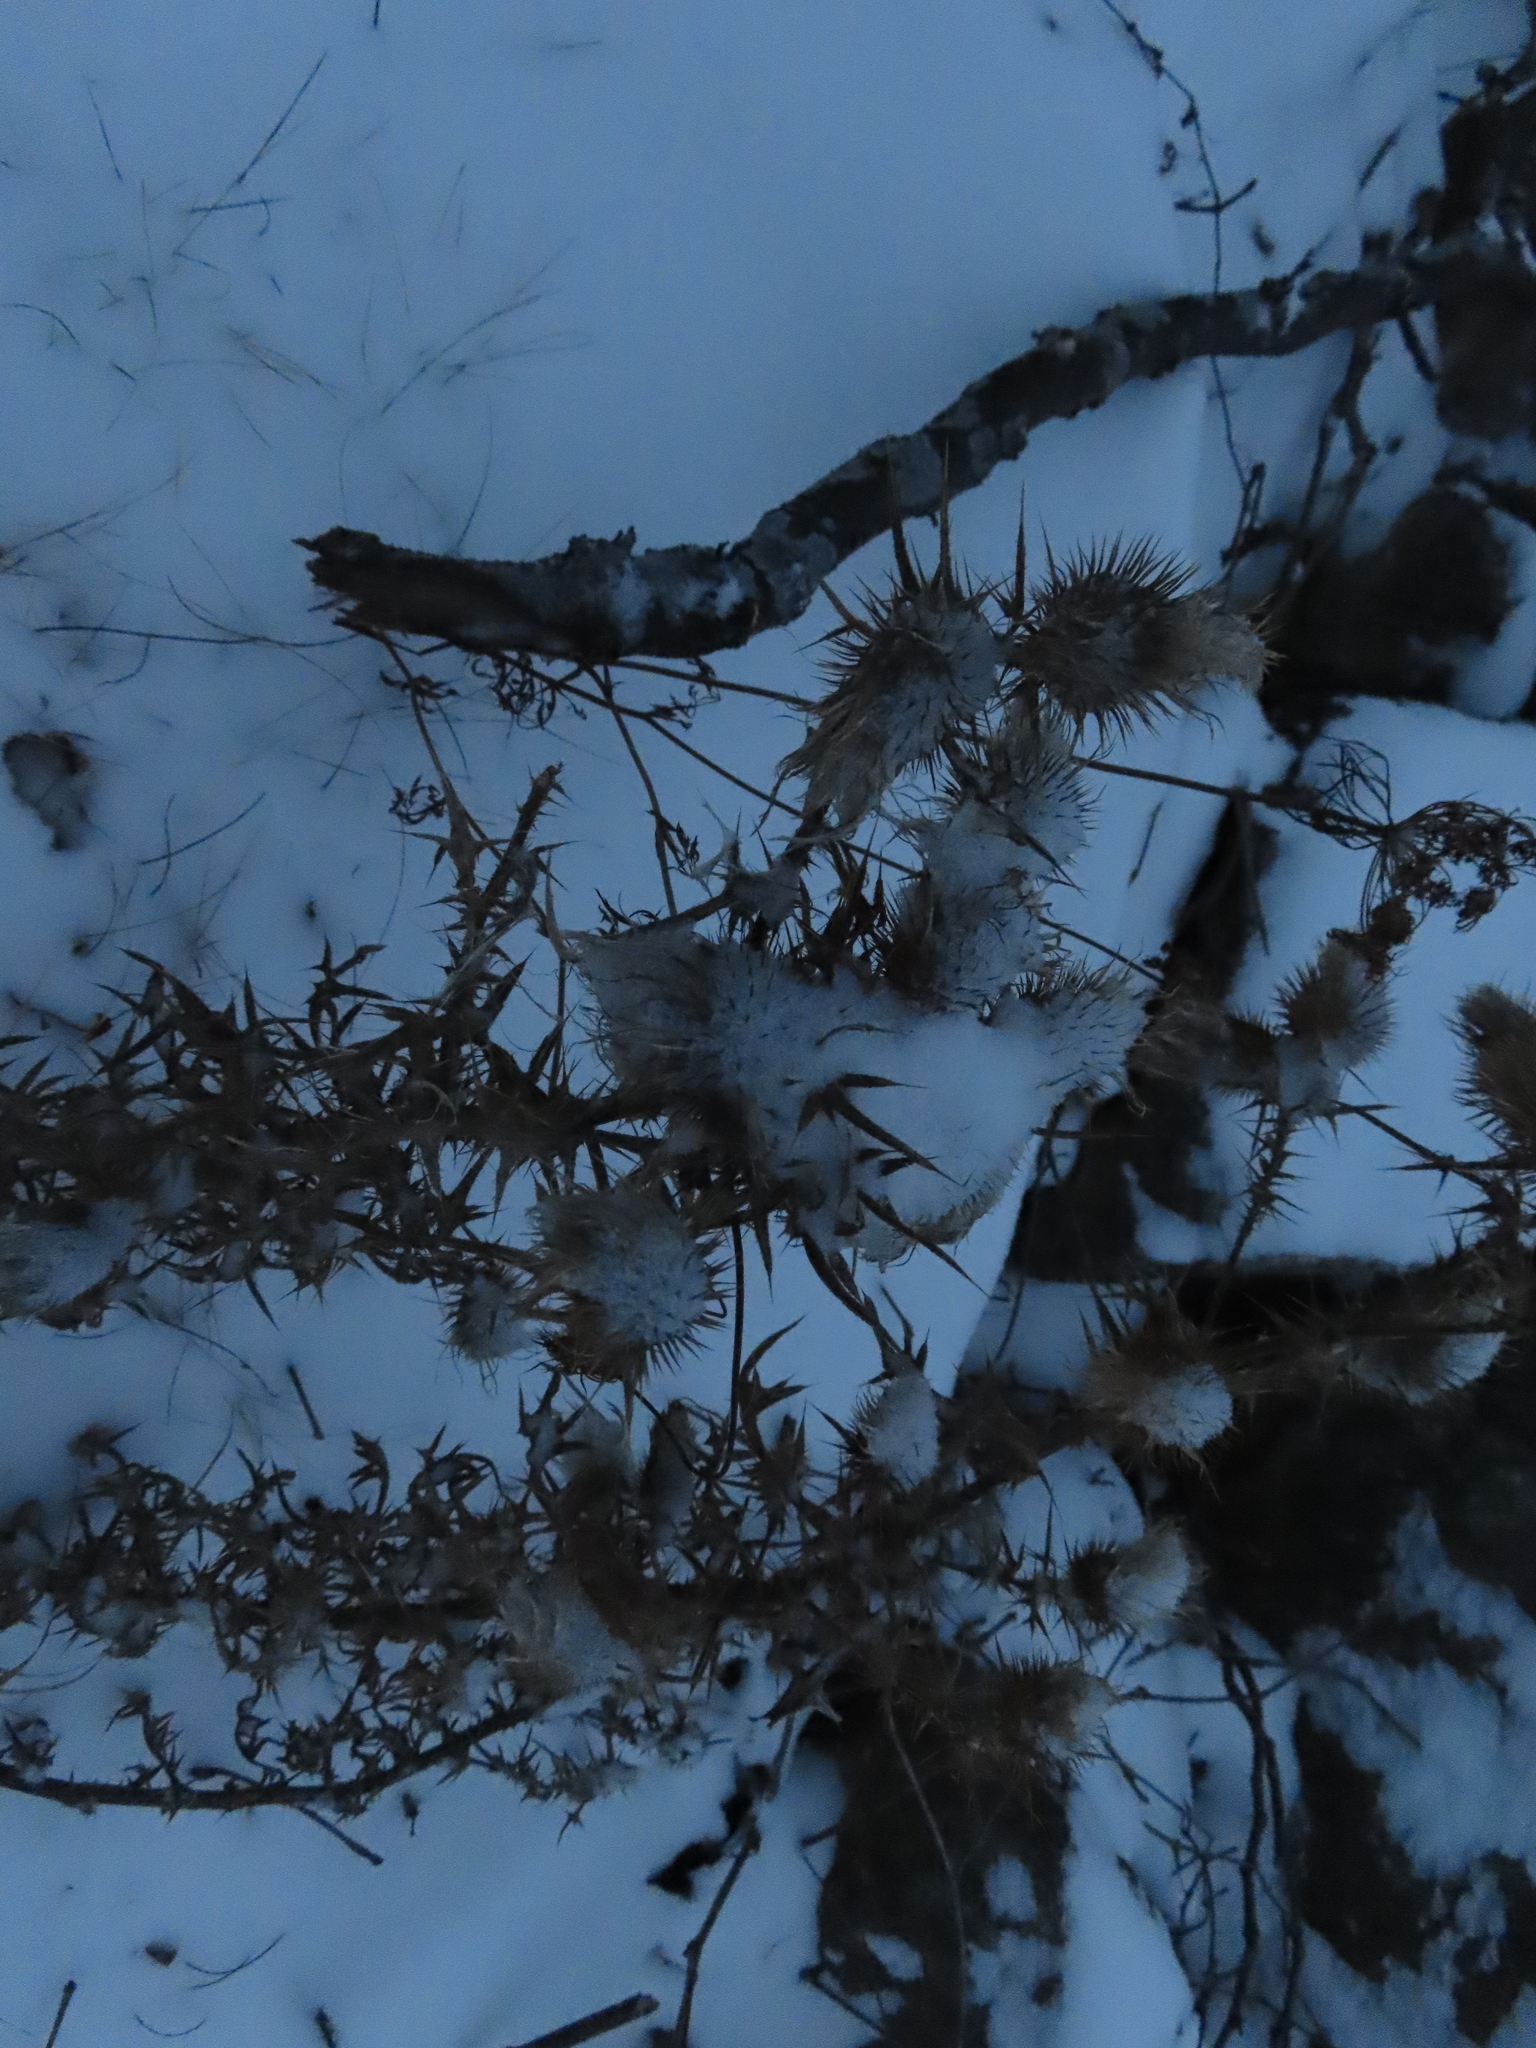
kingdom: Plantae
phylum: Tracheophyta
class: Magnoliopsida
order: Asterales
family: Asteraceae
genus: Cirsium
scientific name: Cirsium vulgare
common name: Bull thistle
